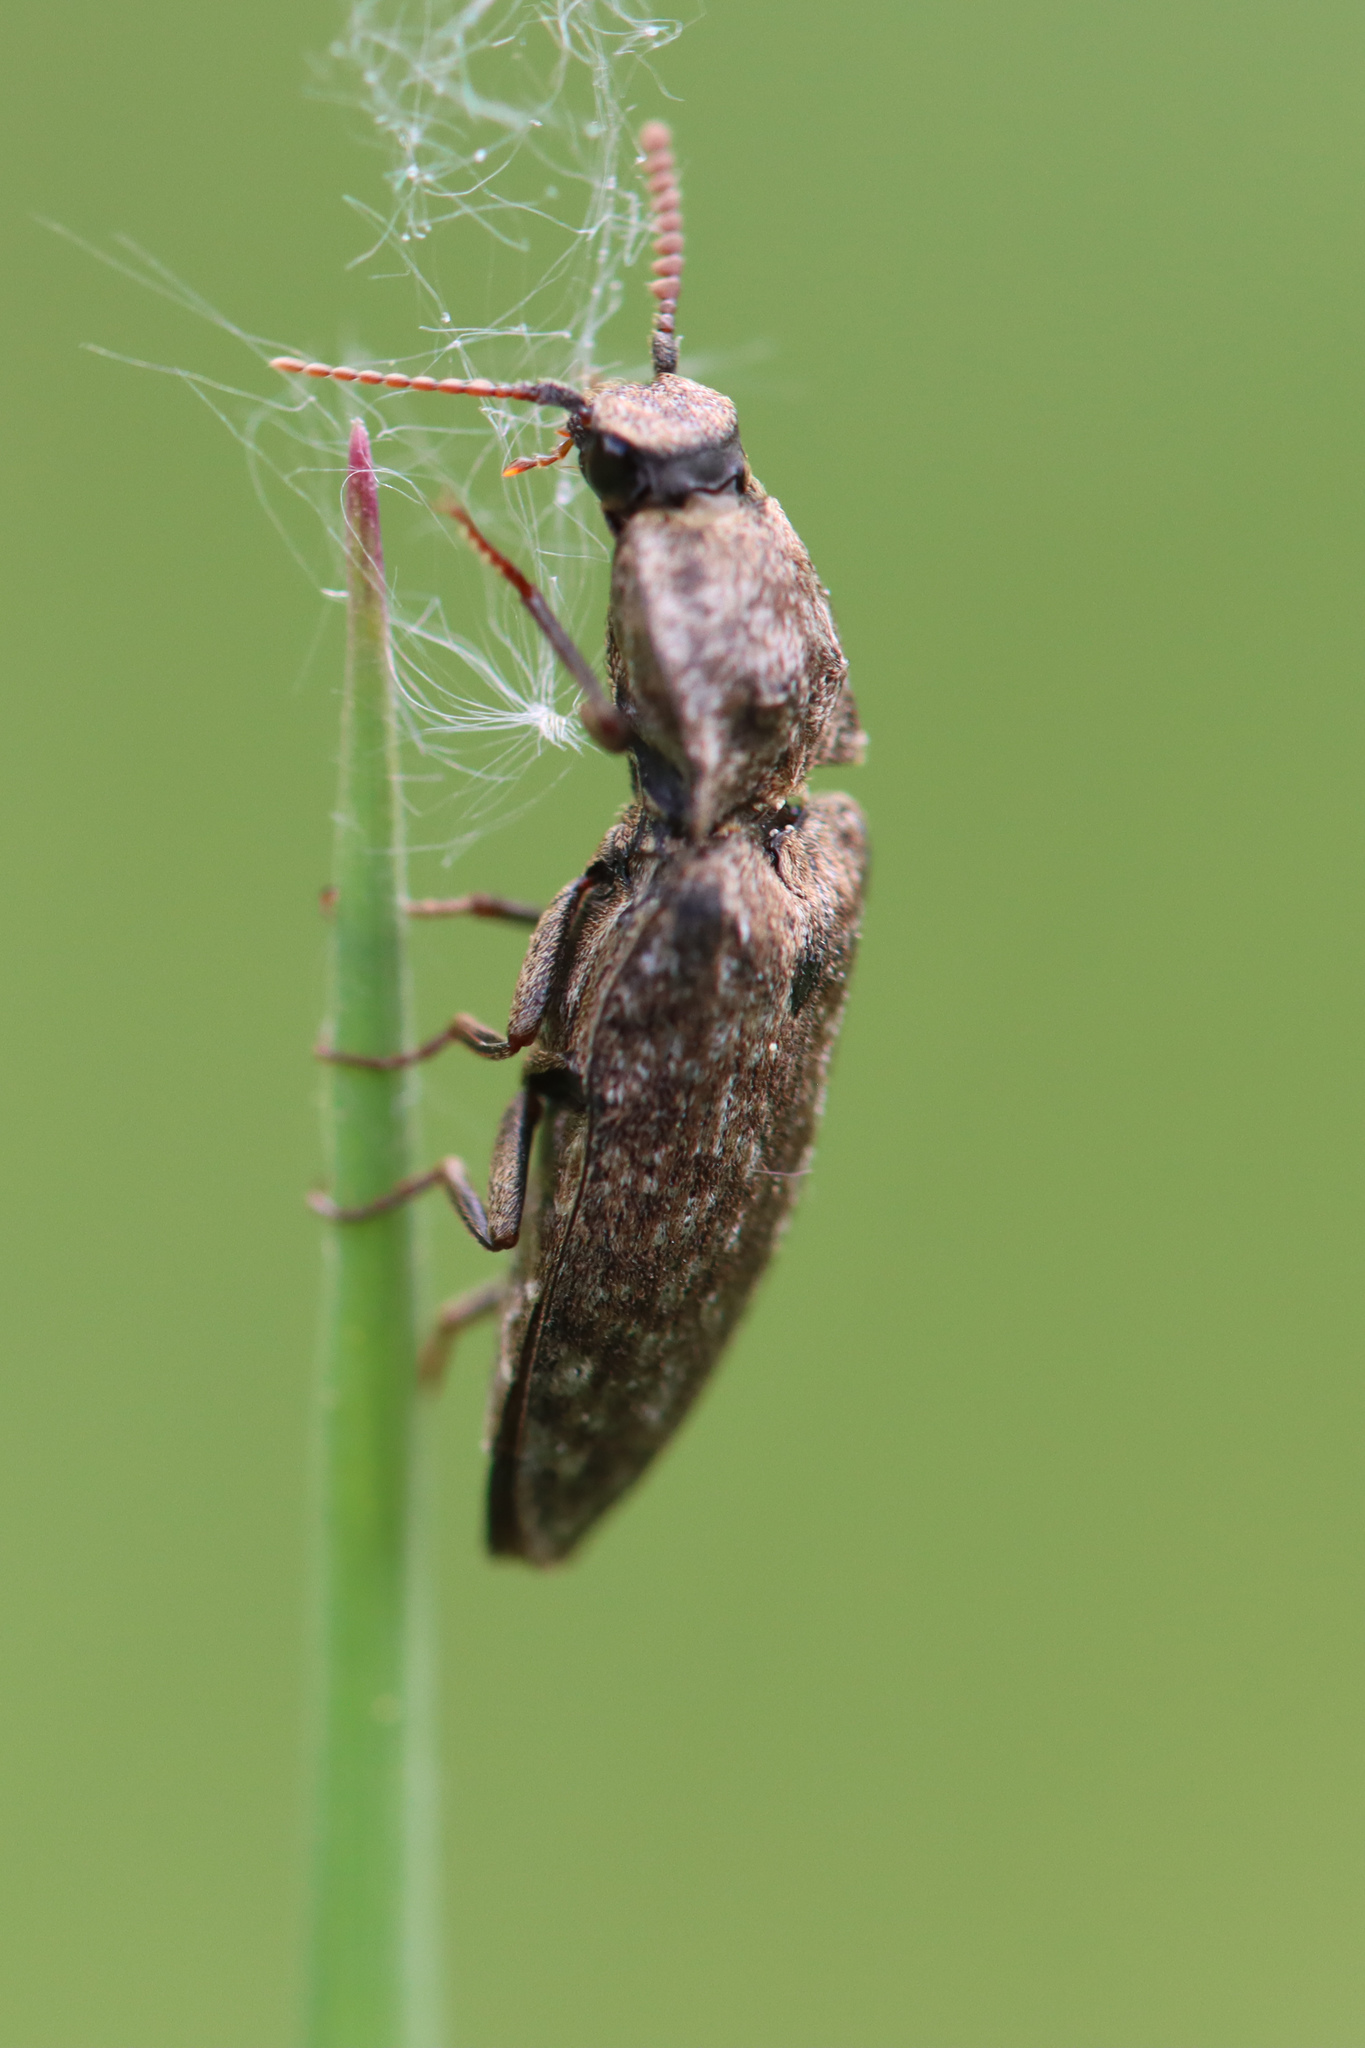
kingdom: Animalia
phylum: Arthropoda
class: Insecta
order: Coleoptera
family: Elateridae
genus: Agrypnus
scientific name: Agrypnus murinus
